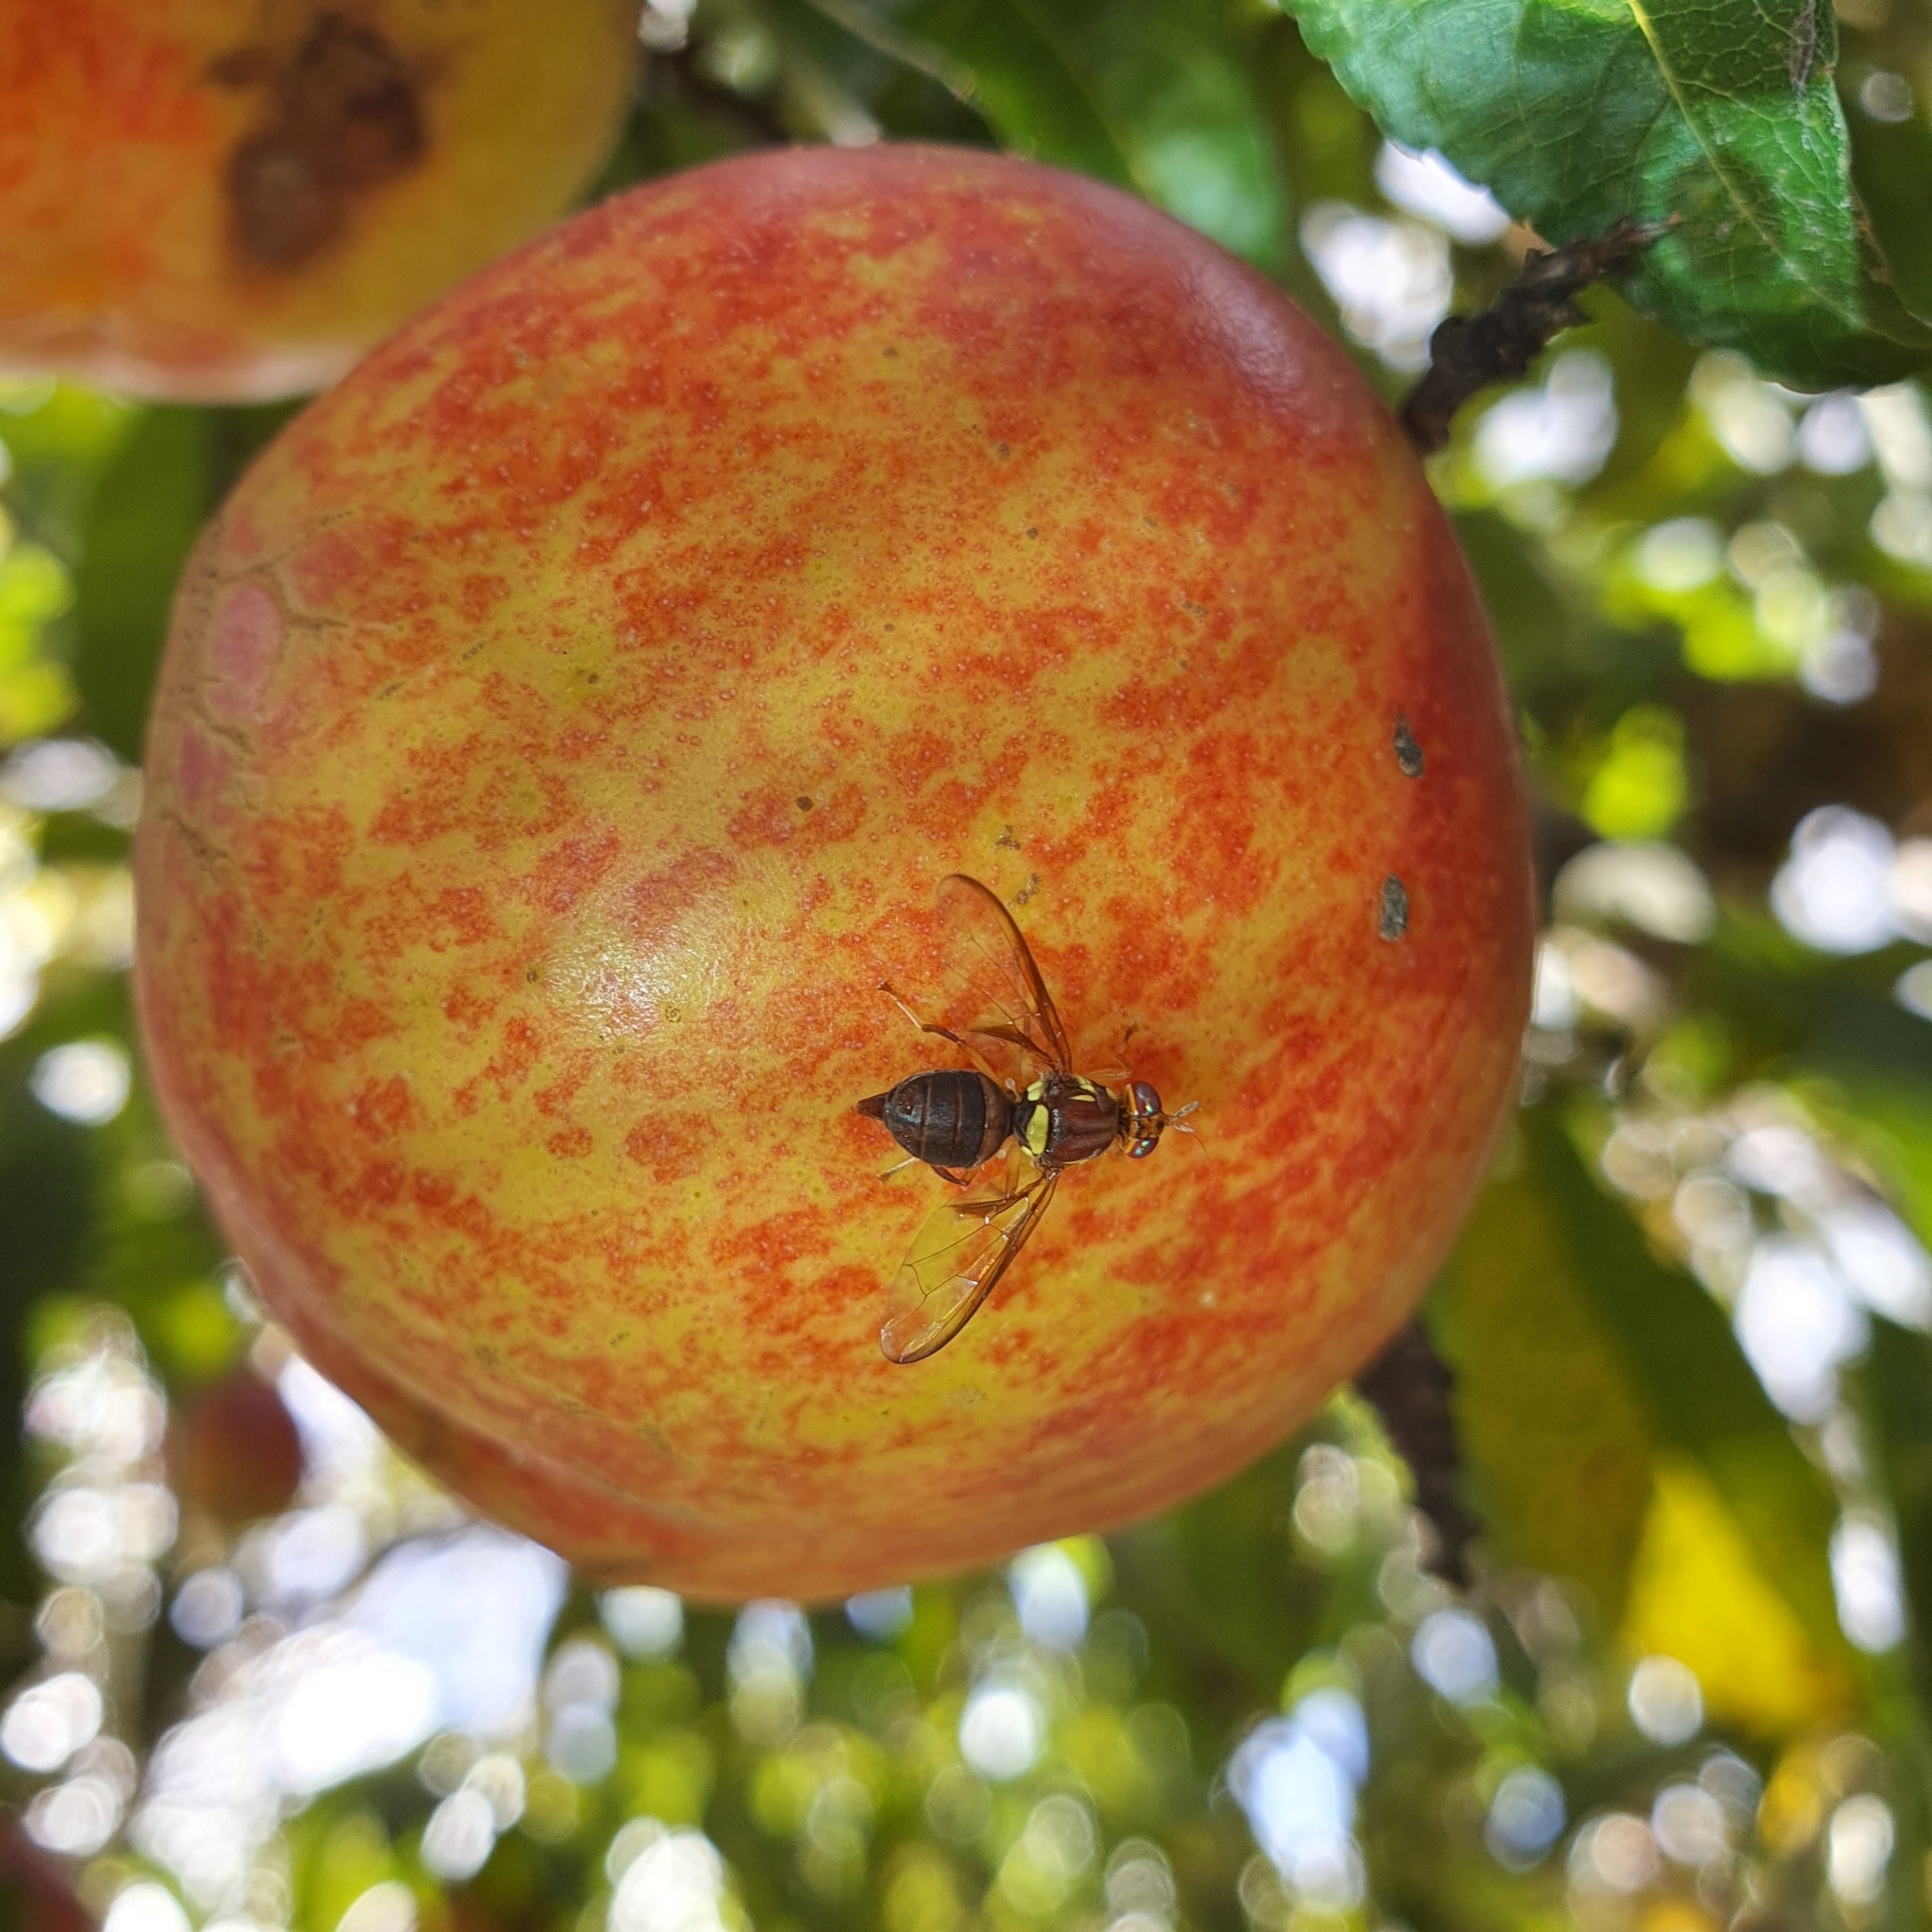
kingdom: Animalia
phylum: Arthropoda
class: Insecta
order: Diptera
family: Tephritidae
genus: Bactrocera
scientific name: Bactrocera tryoni
